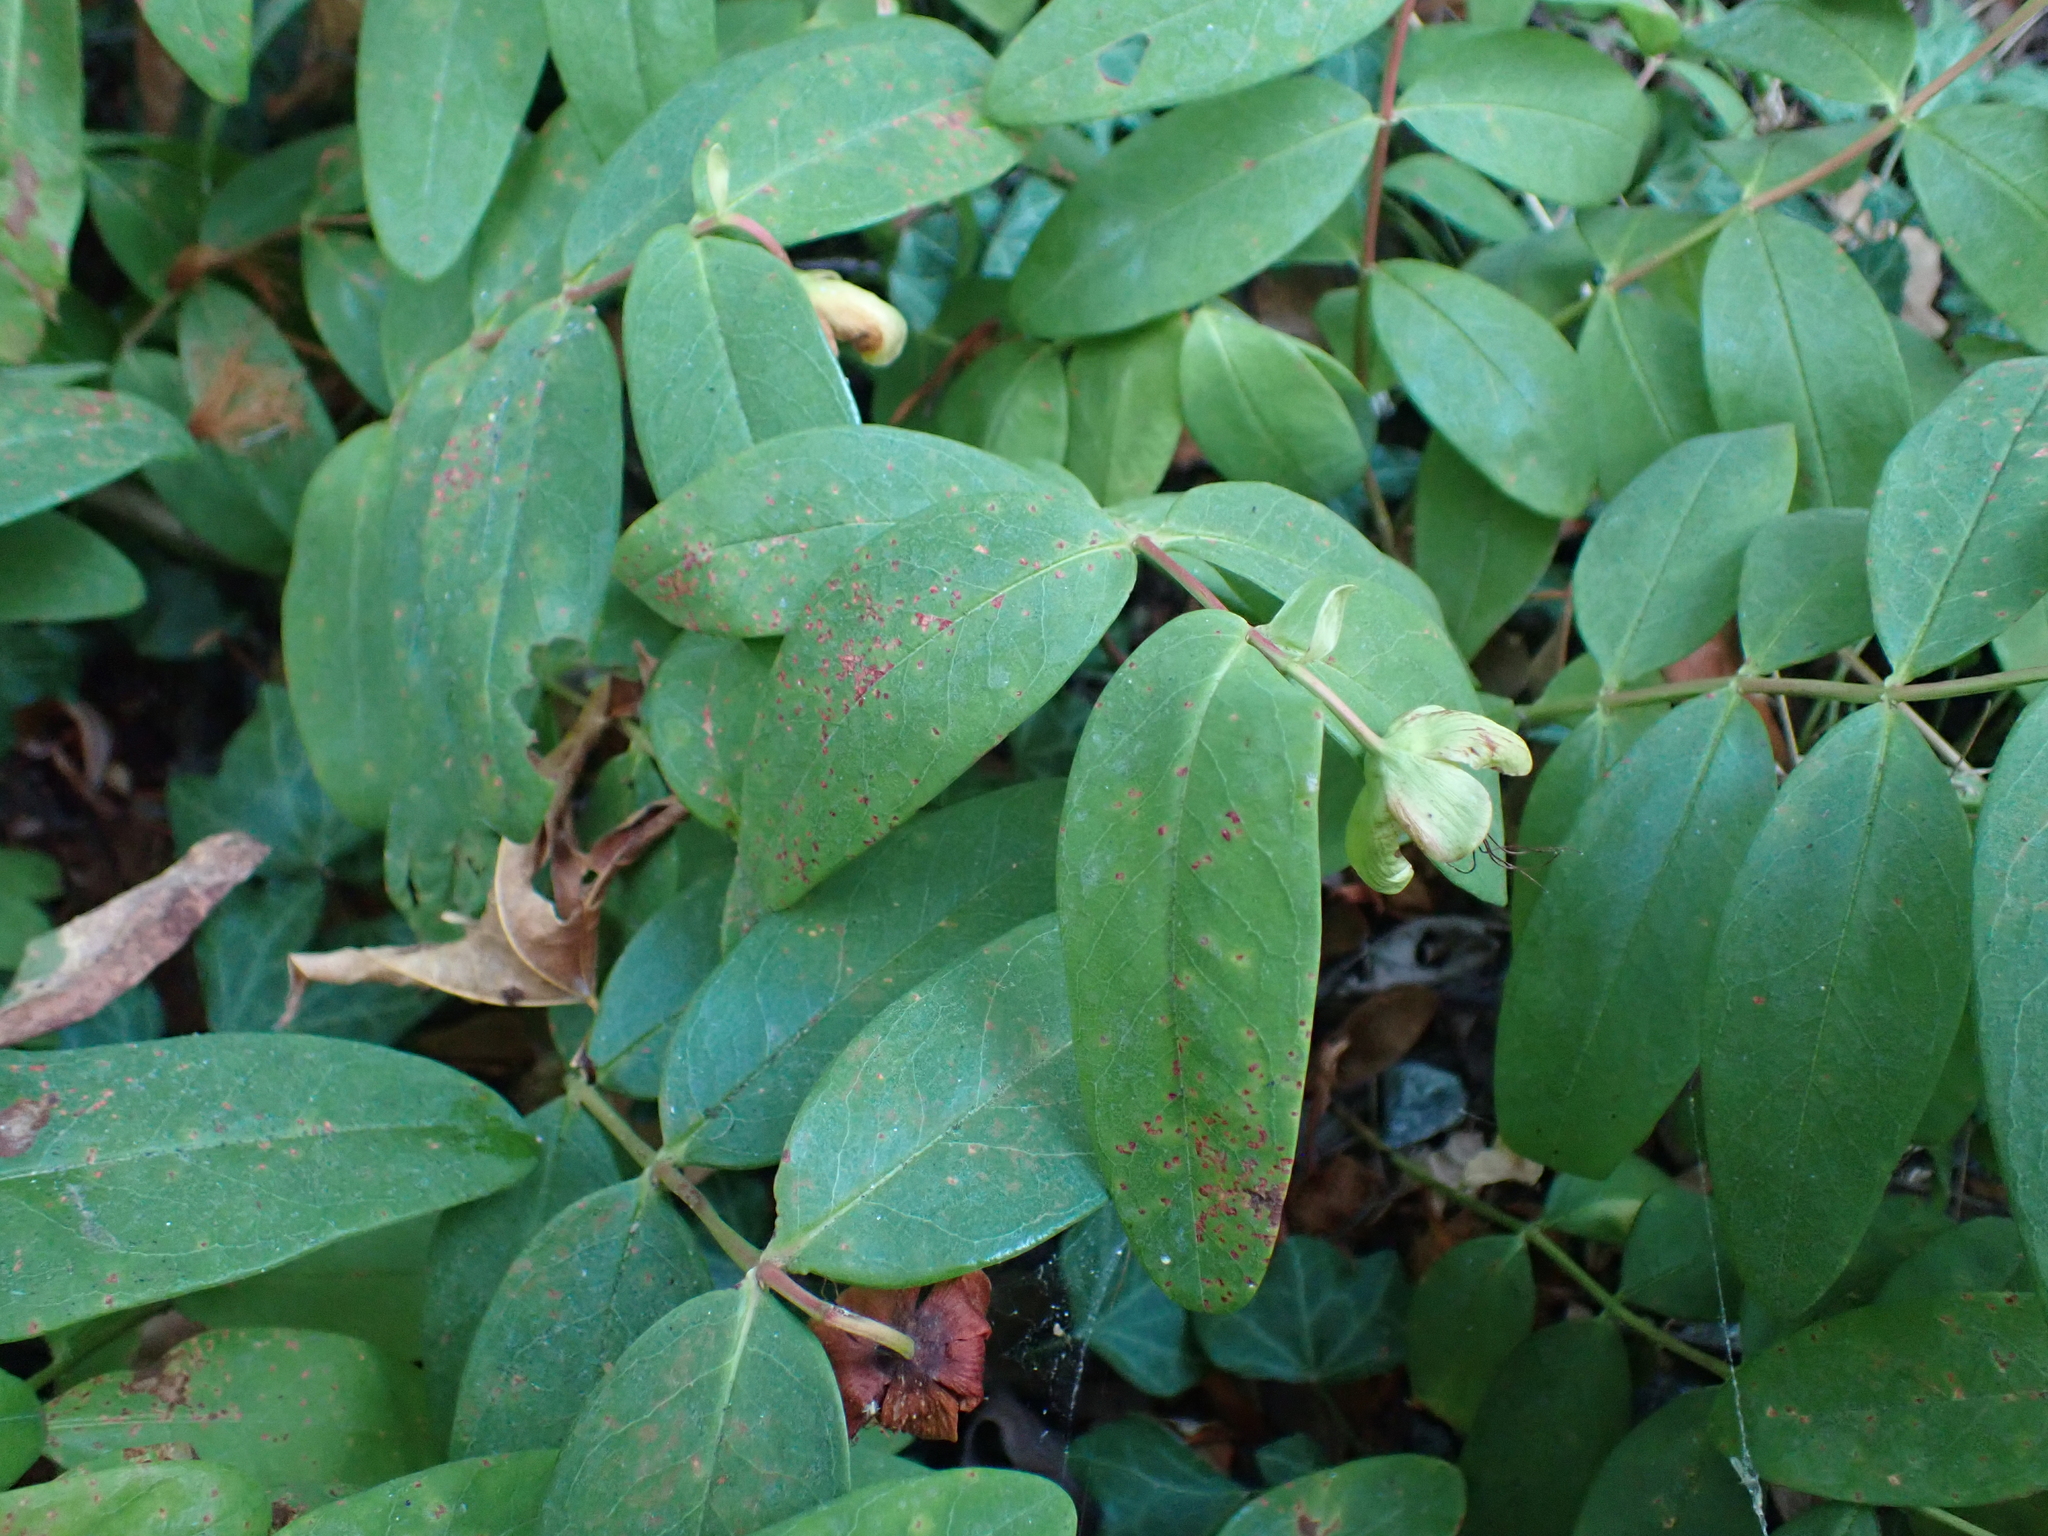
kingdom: Plantae
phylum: Tracheophyta
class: Magnoliopsida
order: Malpighiales
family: Hypericaceae
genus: Hypericum
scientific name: Hypericum calycinum
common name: Rose-of-sharon
